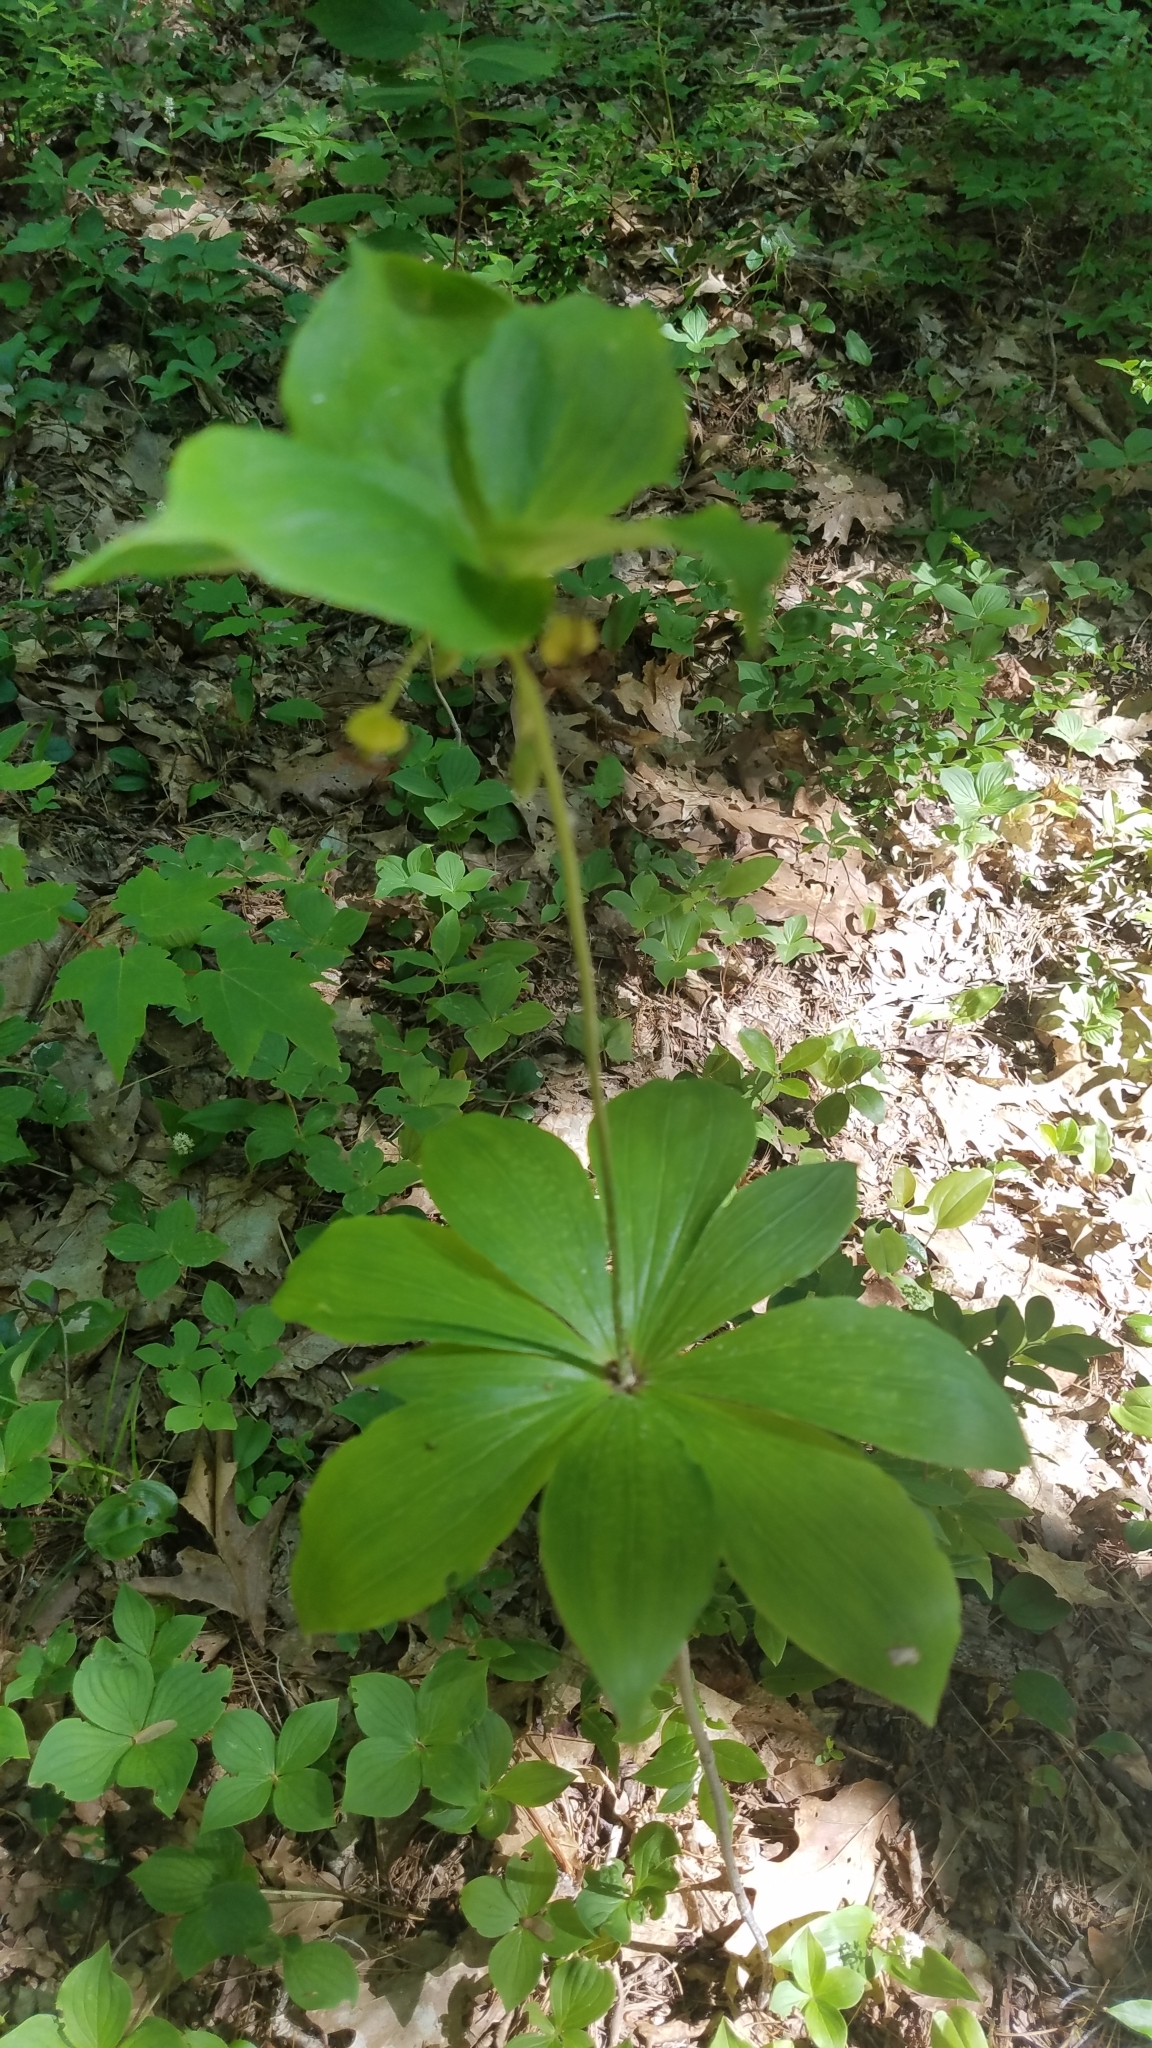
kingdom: Plantae
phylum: Tracheophyta
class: Liliopsida
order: Liliales
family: Liliaceae
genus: Medeola
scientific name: Medeola virginiana
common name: Indian cucumber-root
